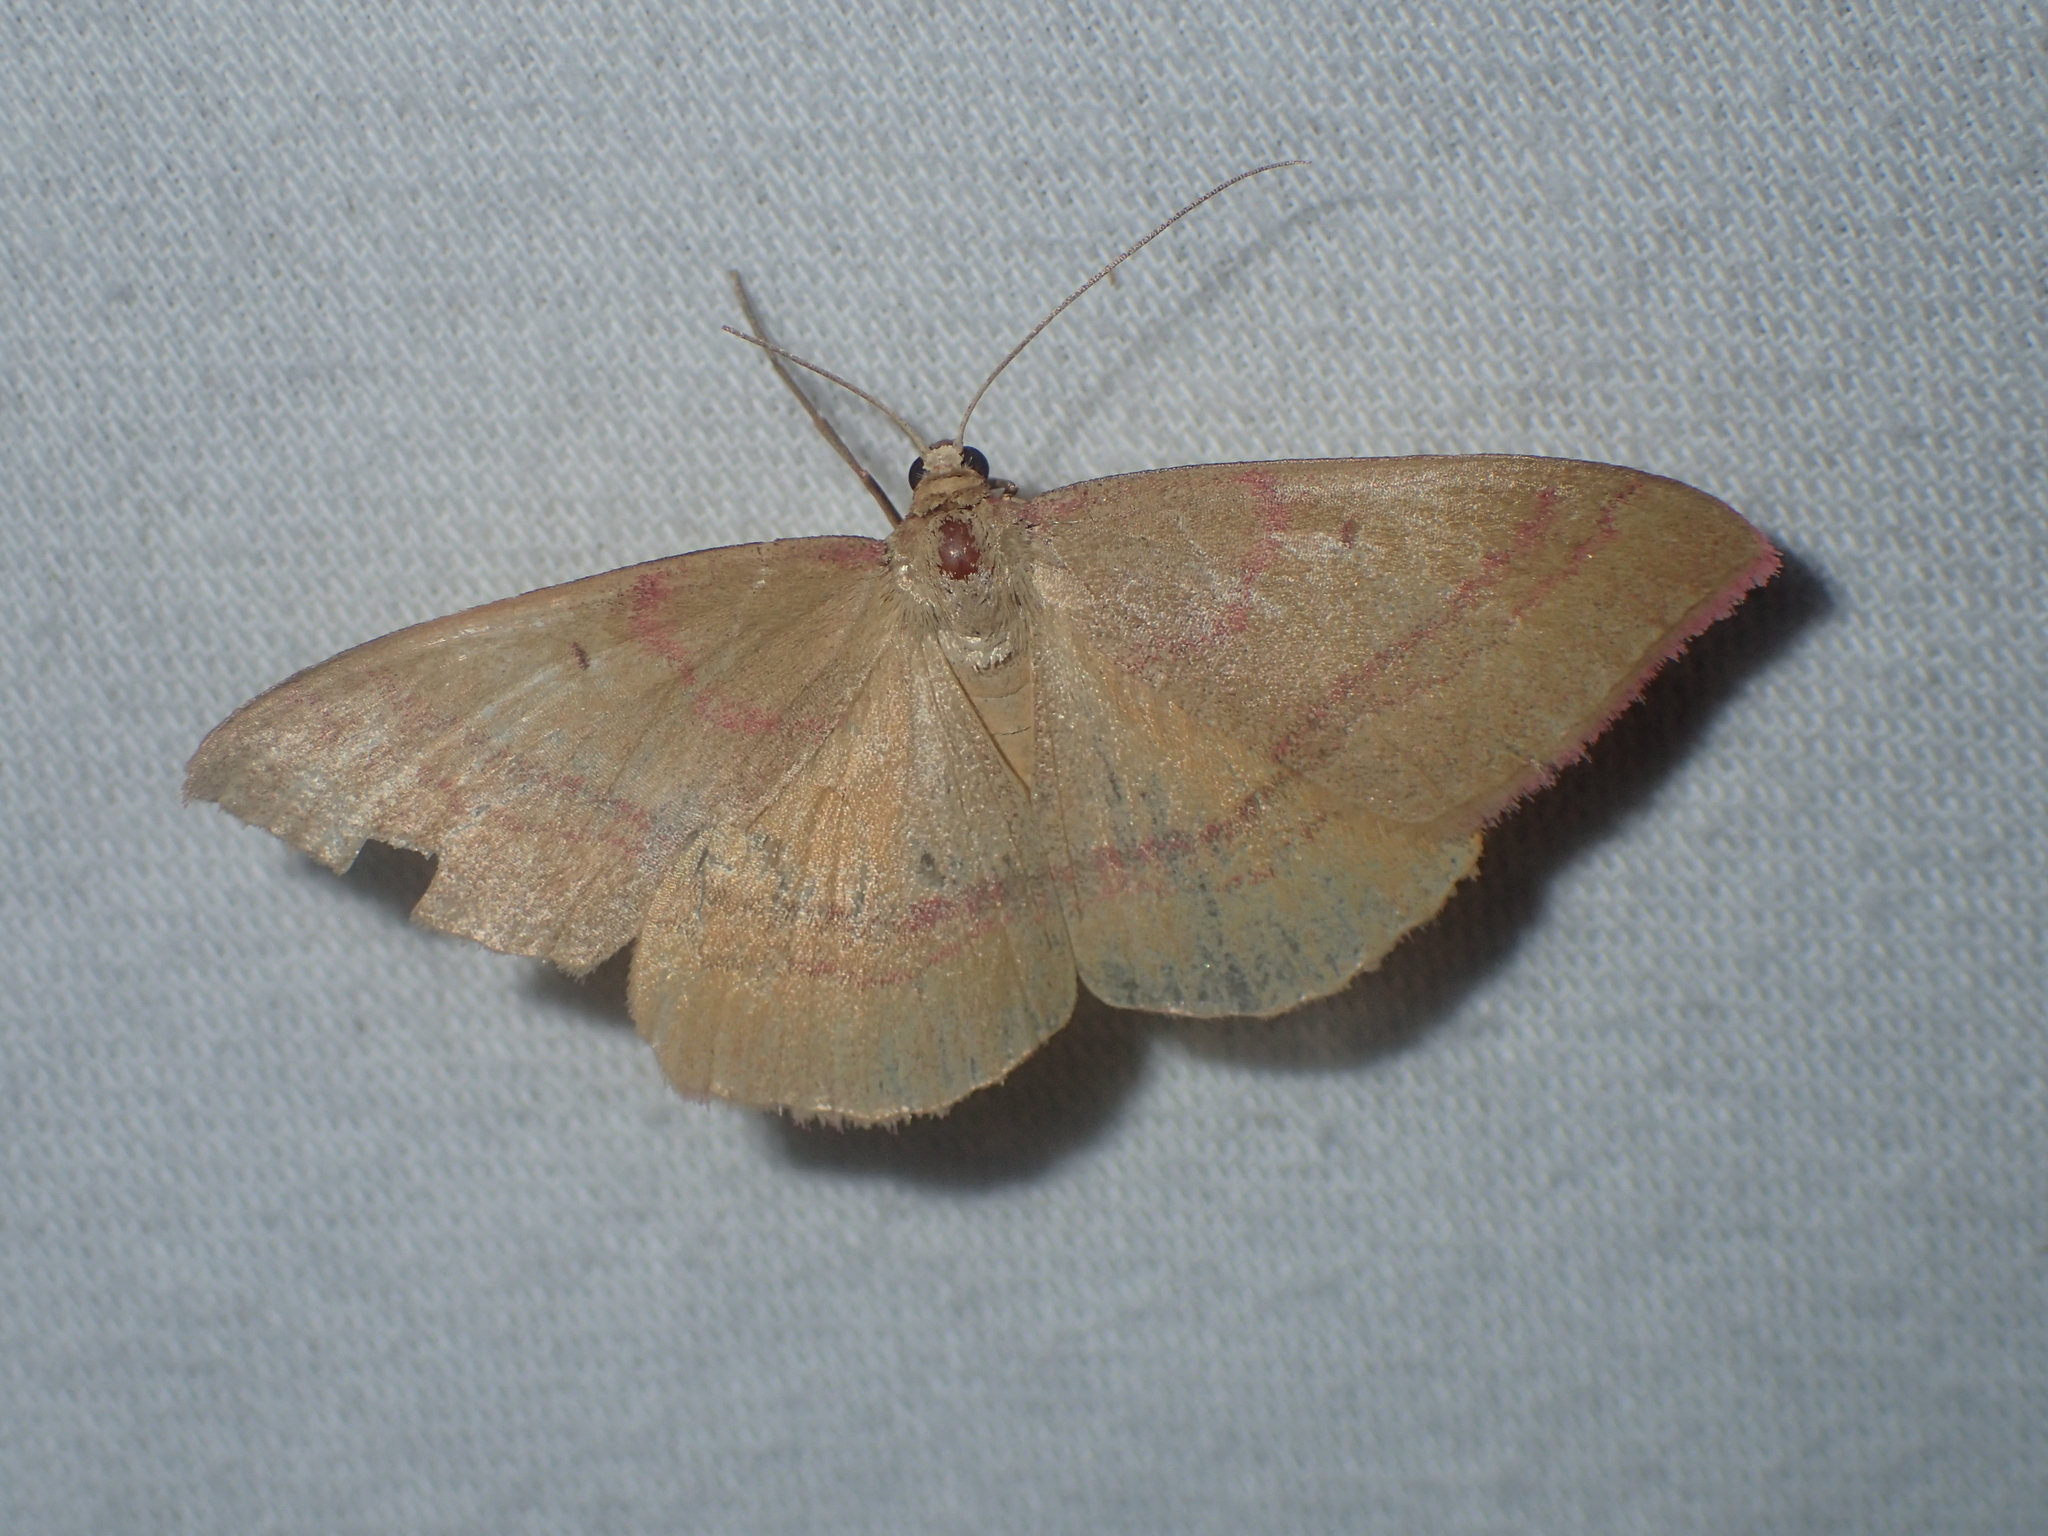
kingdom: Animalia
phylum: Arthropoda
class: Insecta
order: Lepidoptera
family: Geometridae
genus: Rhodostrophia
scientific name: Rhodostrophia calabra
